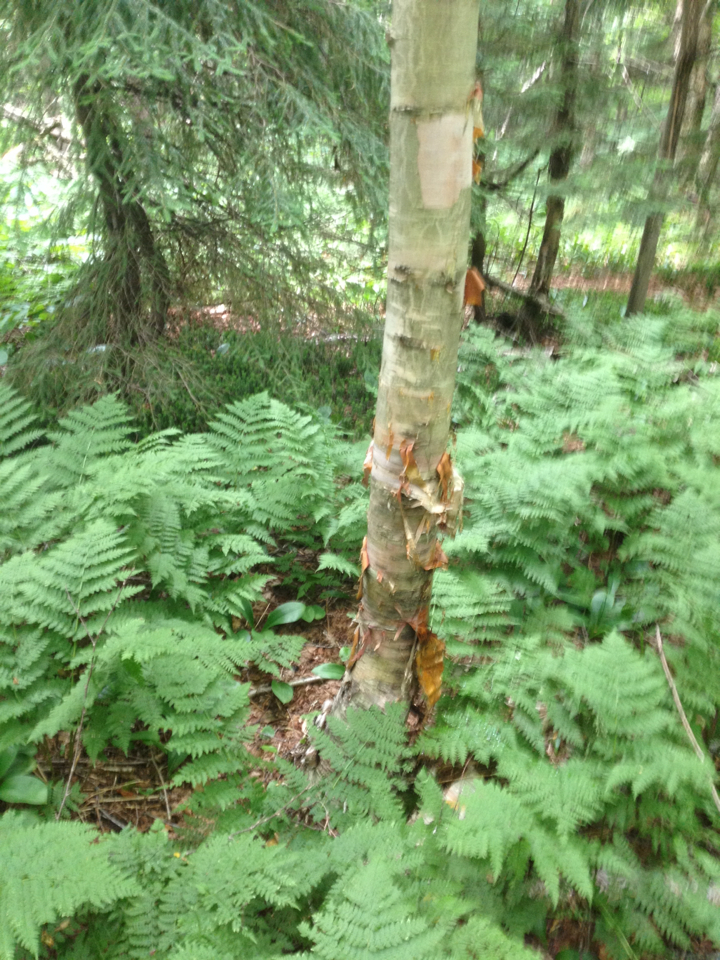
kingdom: Plantae
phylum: Tracheophyta
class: Magnoliopsida
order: Fagales
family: Betulaceae
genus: Betula
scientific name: Betula cordifolia
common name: Mountain white birch
